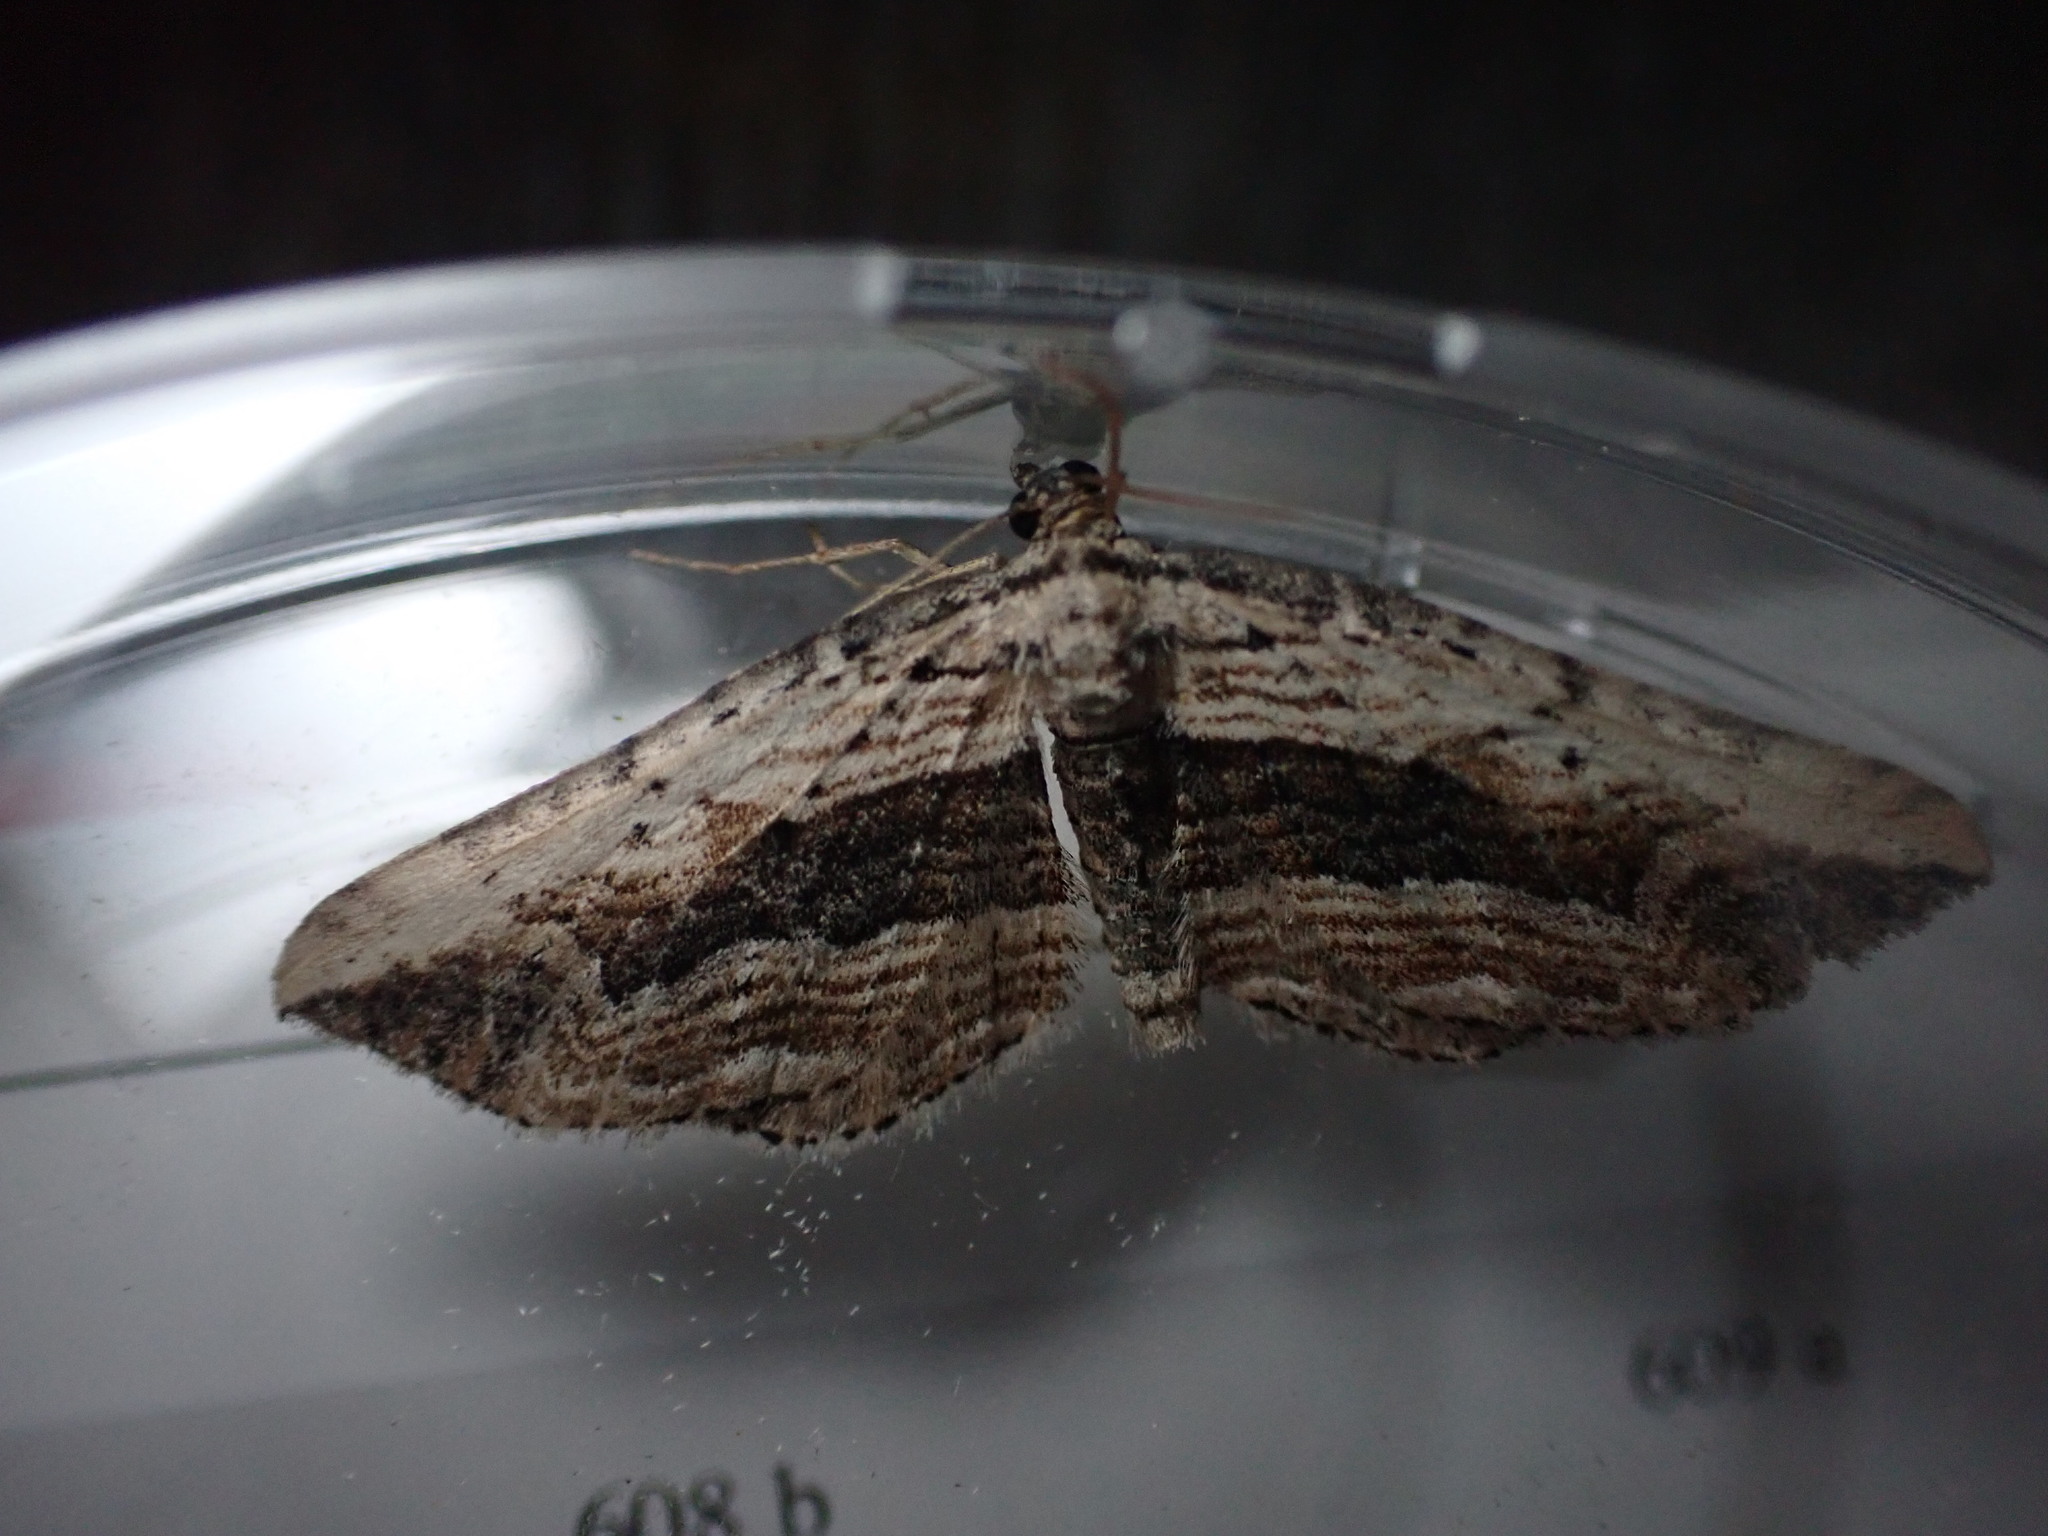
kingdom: Animalia
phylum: Arthropoda
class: Insecta
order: Lepidoptera
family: Geometridae
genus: Horisme
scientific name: Horisme vitalbata
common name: Small waved umber
